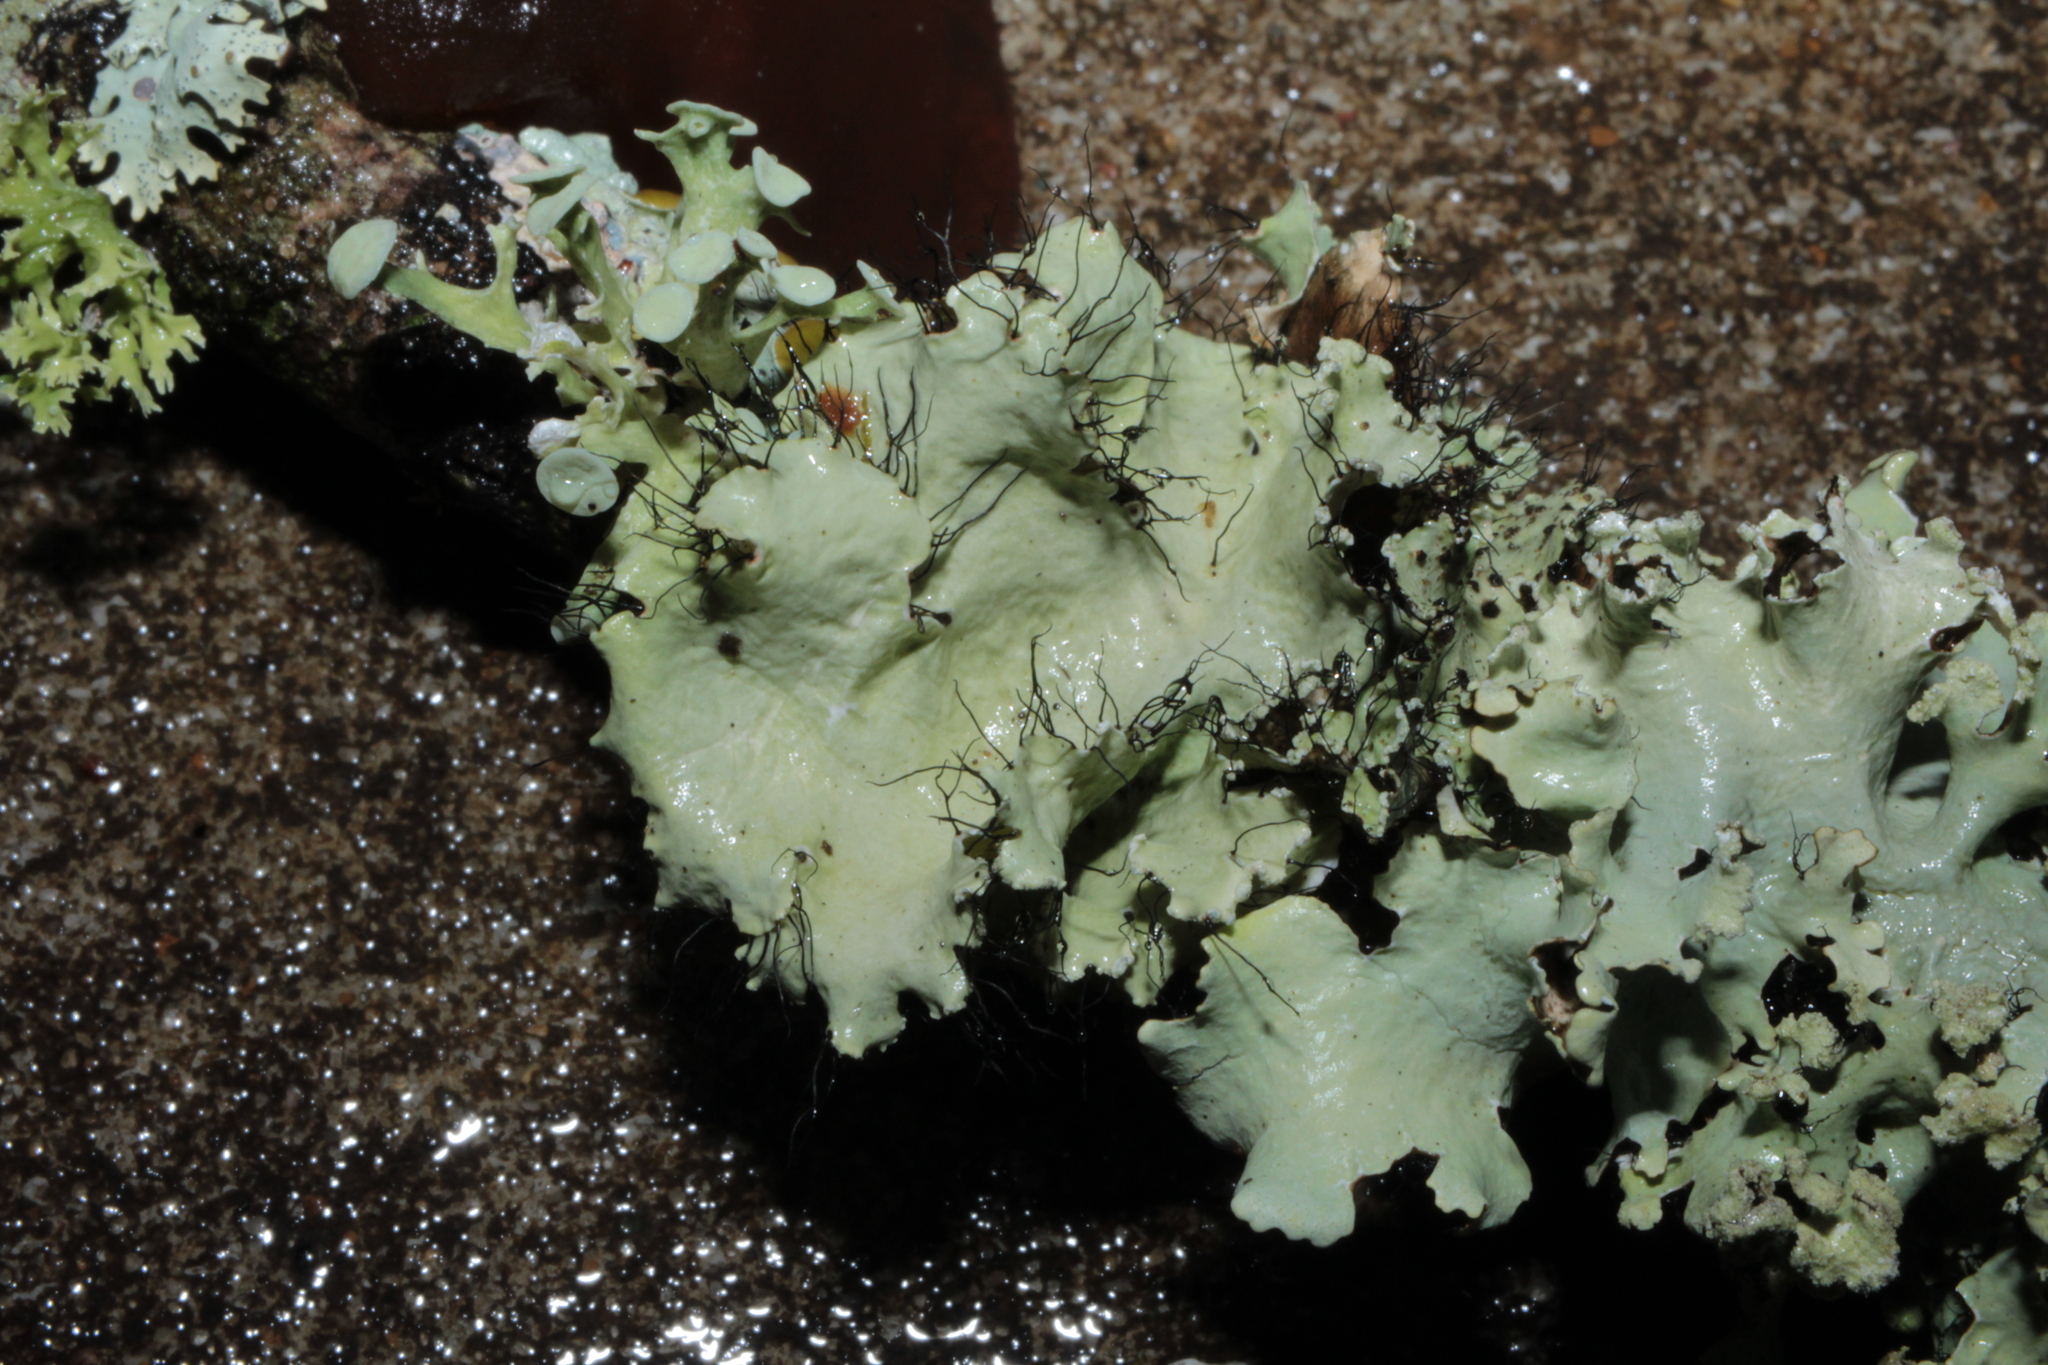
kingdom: Fungi
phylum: Ascomycota
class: Lecanoromycetes
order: Lecanorales
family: Parmeliaceae
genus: Parmotrema
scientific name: Parmotrema hypotropum
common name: Powdered ruffle lichen
